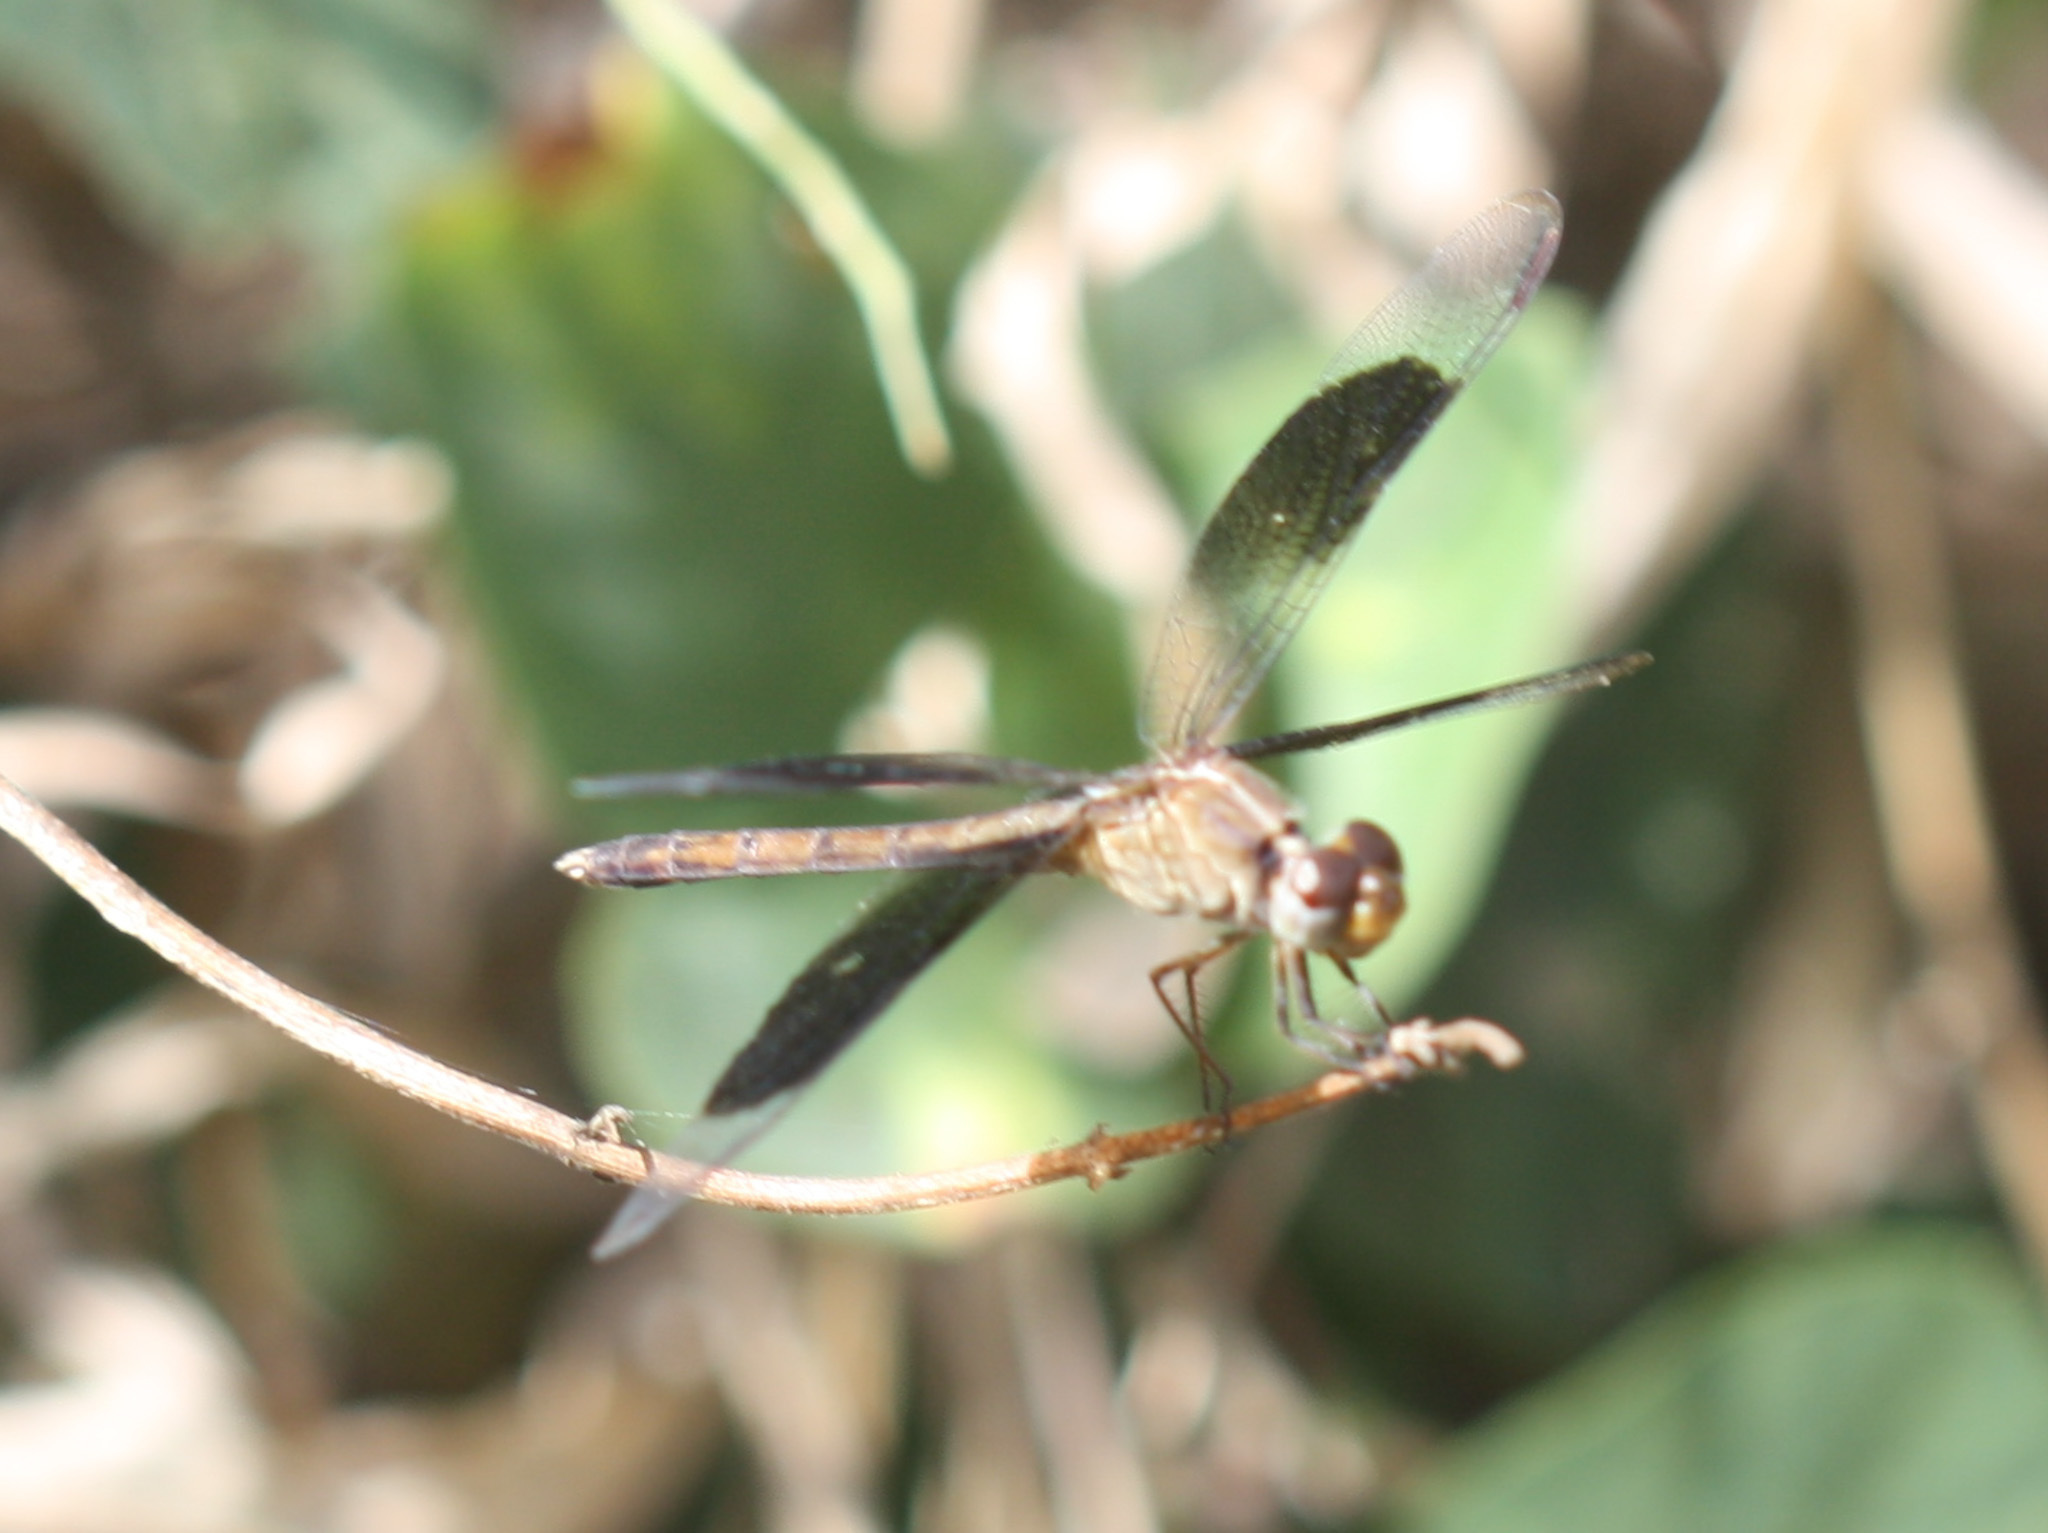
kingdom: Animalia
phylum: Arthropoda
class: Insecta
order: Odonata
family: Libellulidae
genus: Erythrodiplax
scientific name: Erythrodiplax funerea
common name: Black-winged dragonlet
